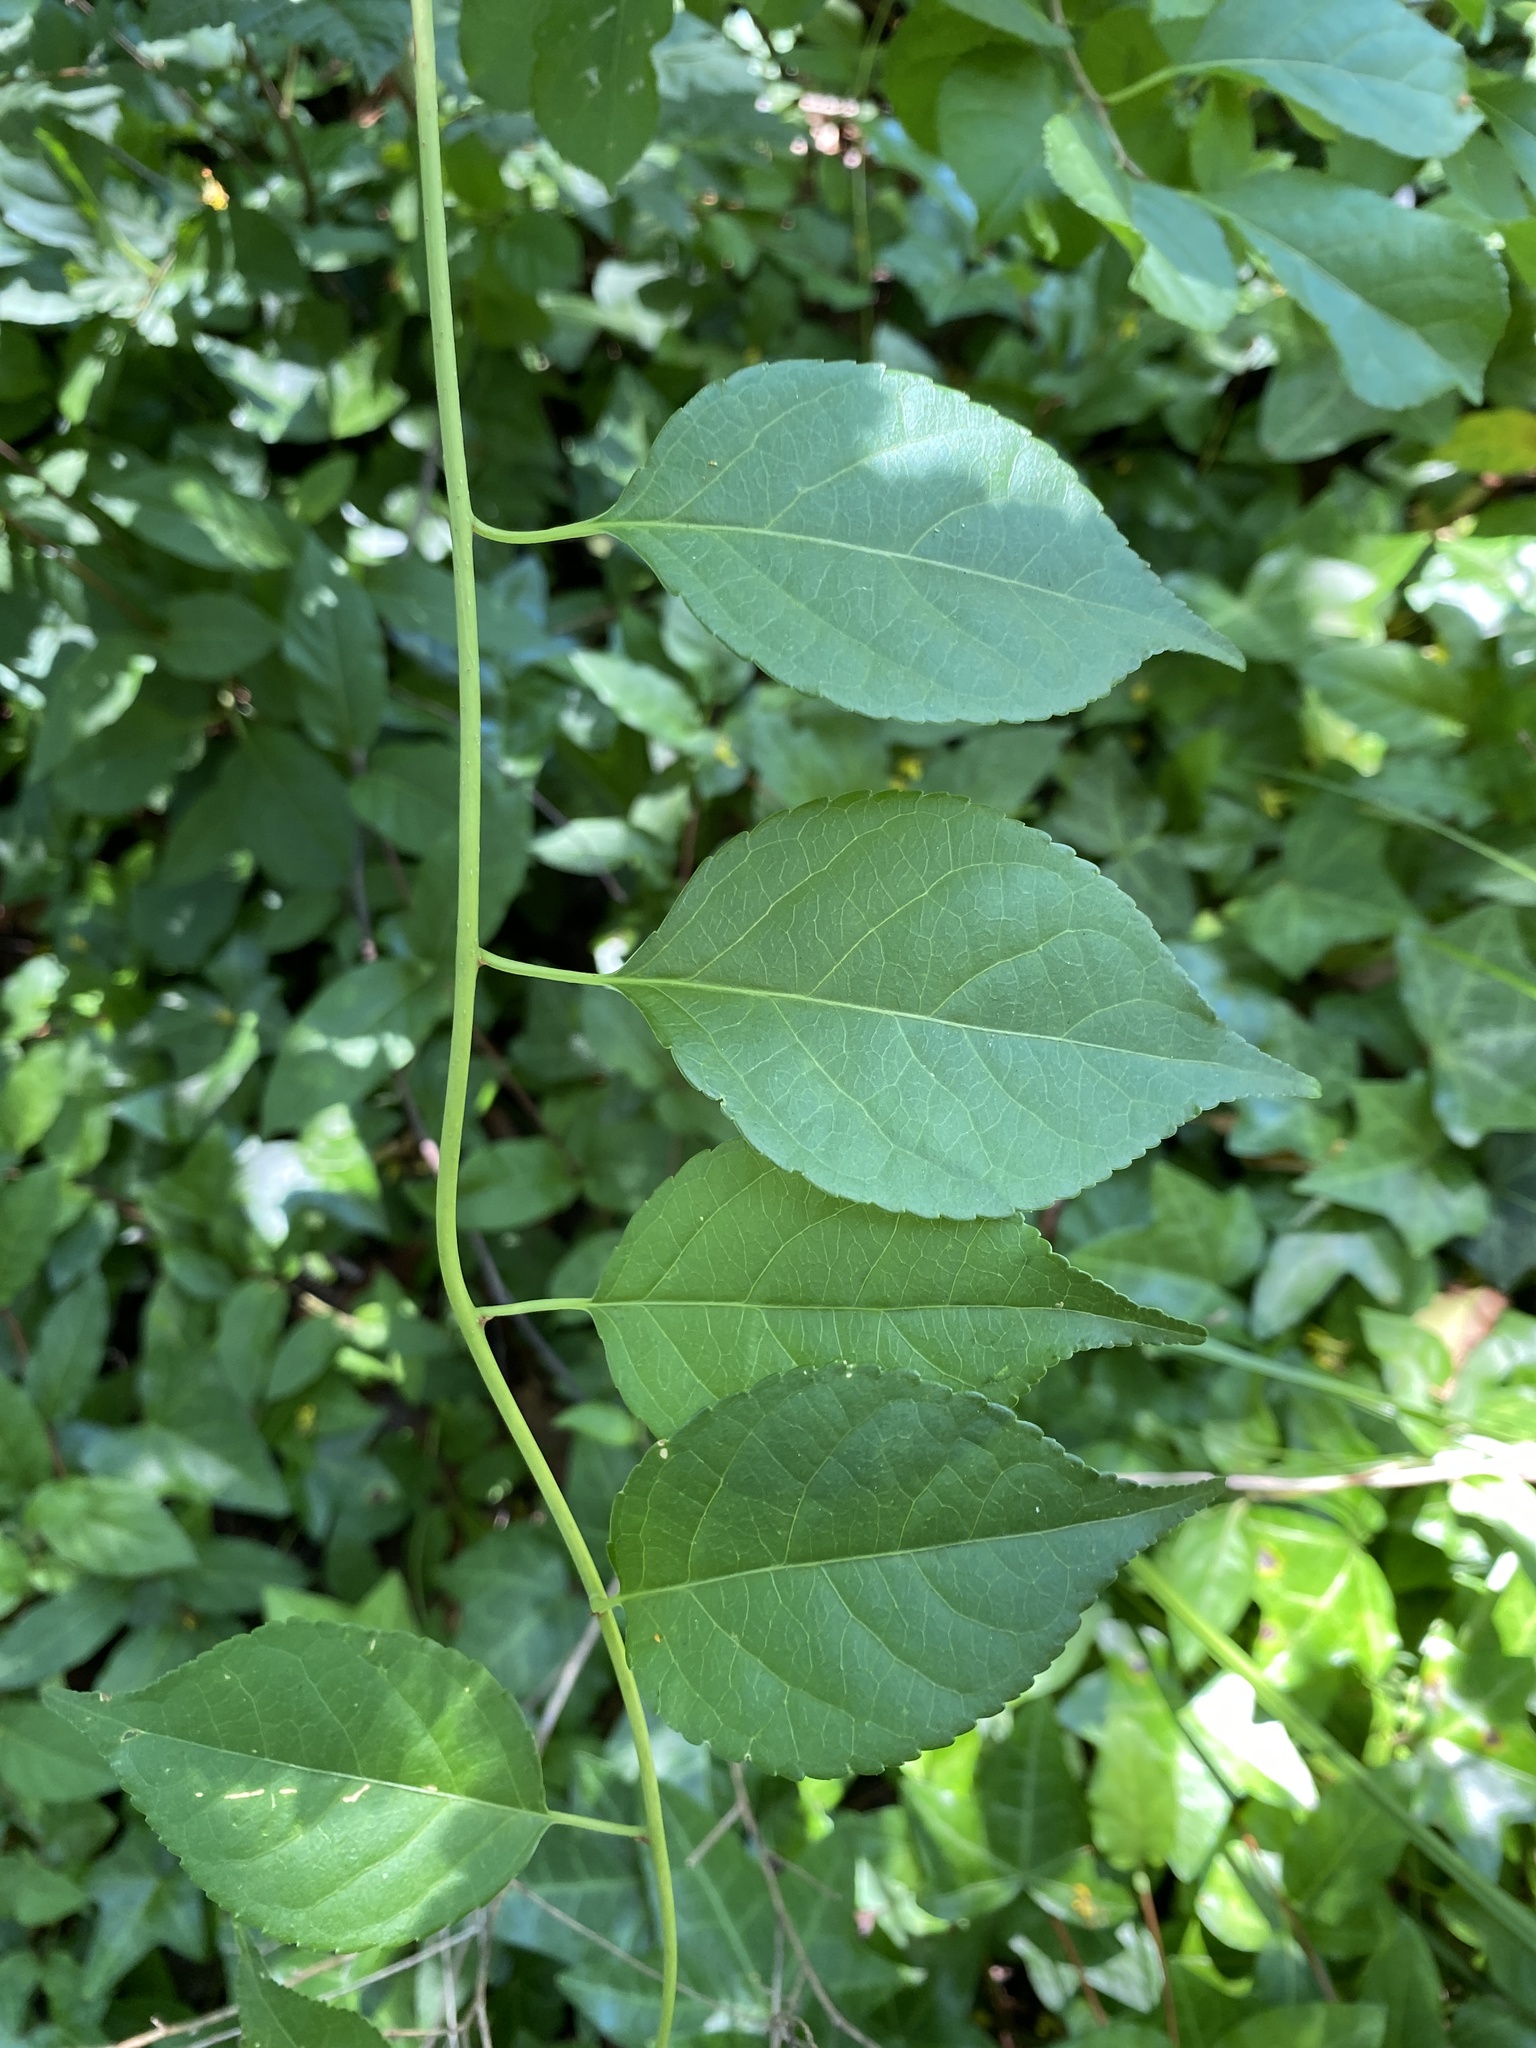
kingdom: Plantae
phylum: Tracheophyta
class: Magnoliopsida
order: Celastrales
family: Celastraceae
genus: Celastrus
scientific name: Celastrus orbiculatus
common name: Oriental bittersweet
